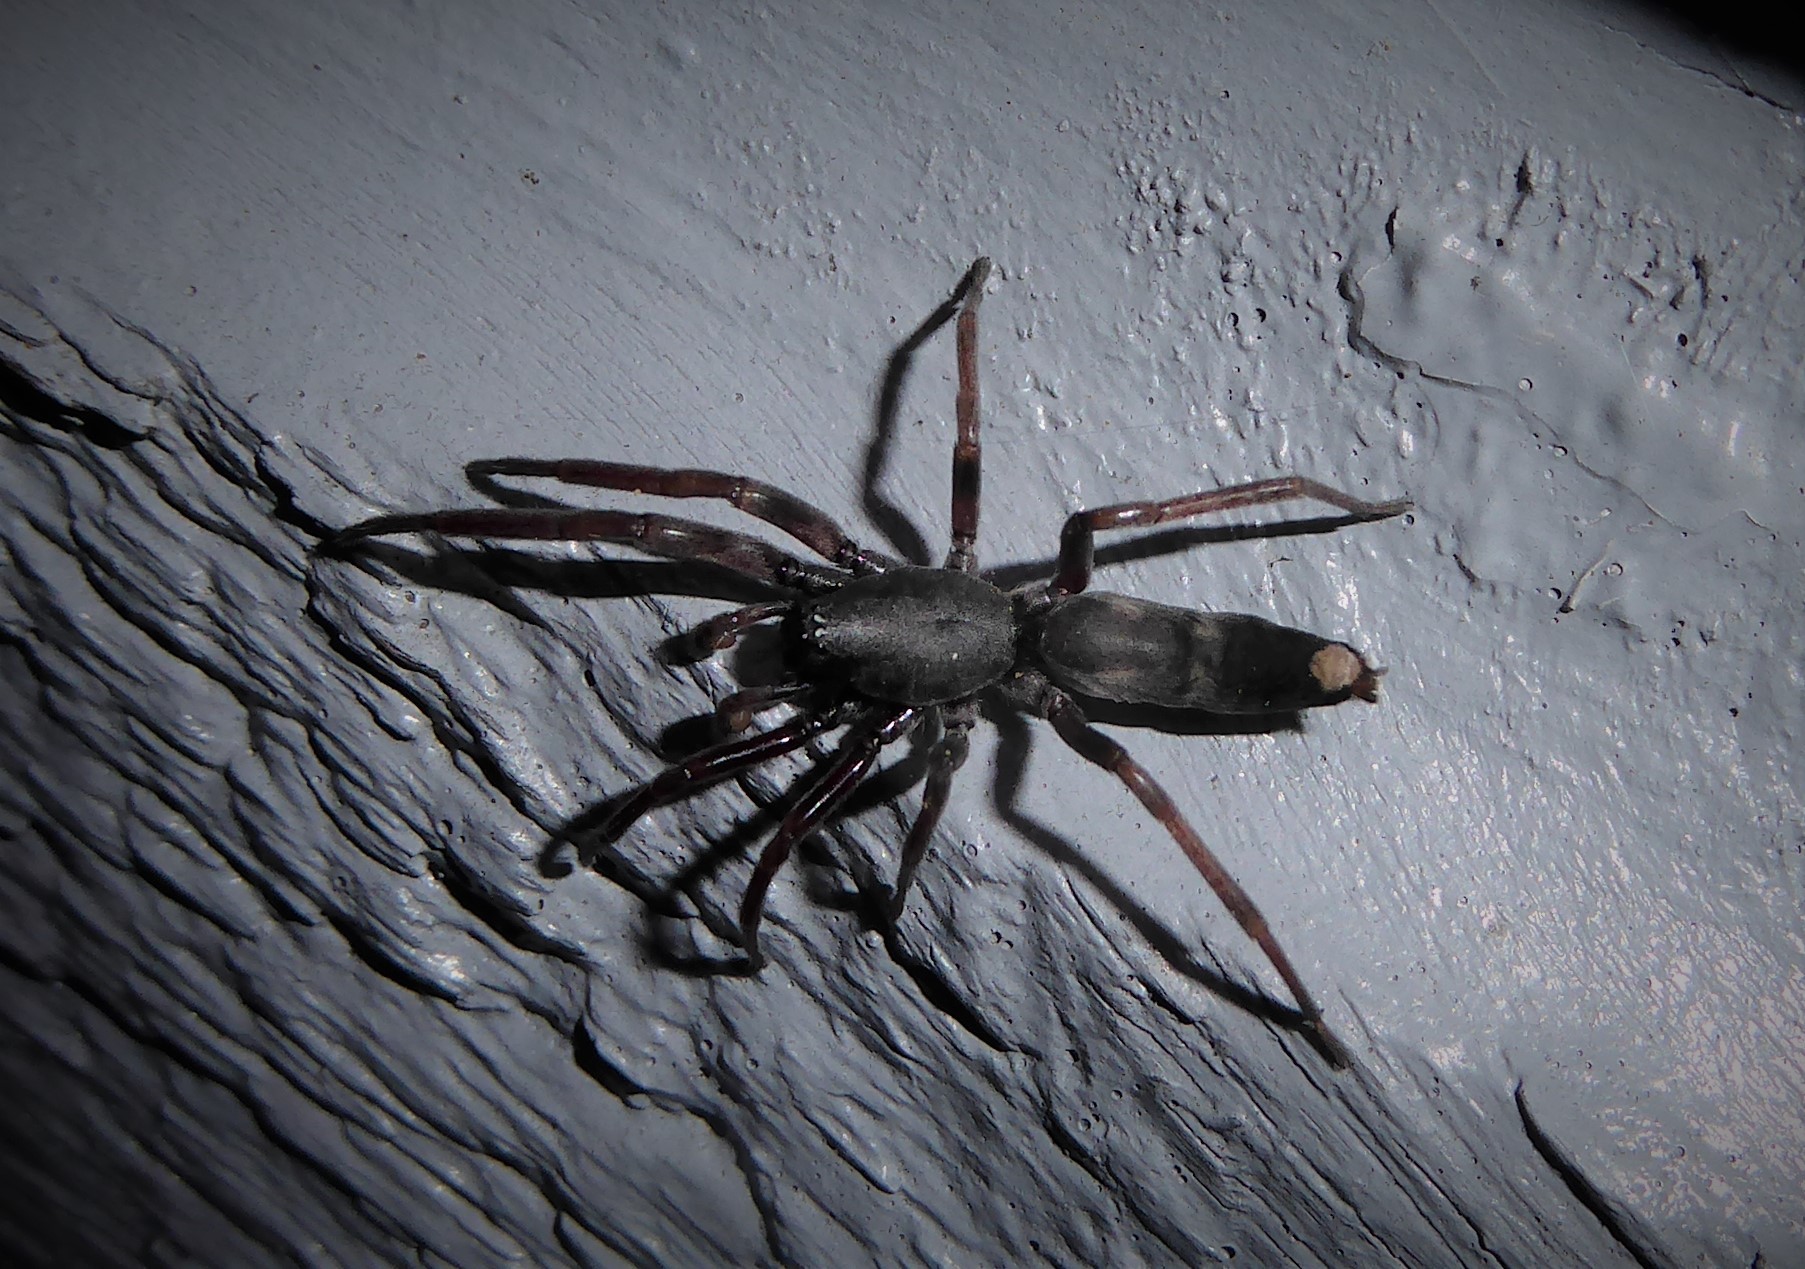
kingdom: Animalia
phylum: Arthropoda
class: Arachnida
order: Araneae
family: Lamponidae
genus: Lampona
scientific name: Lampona cylindrata
